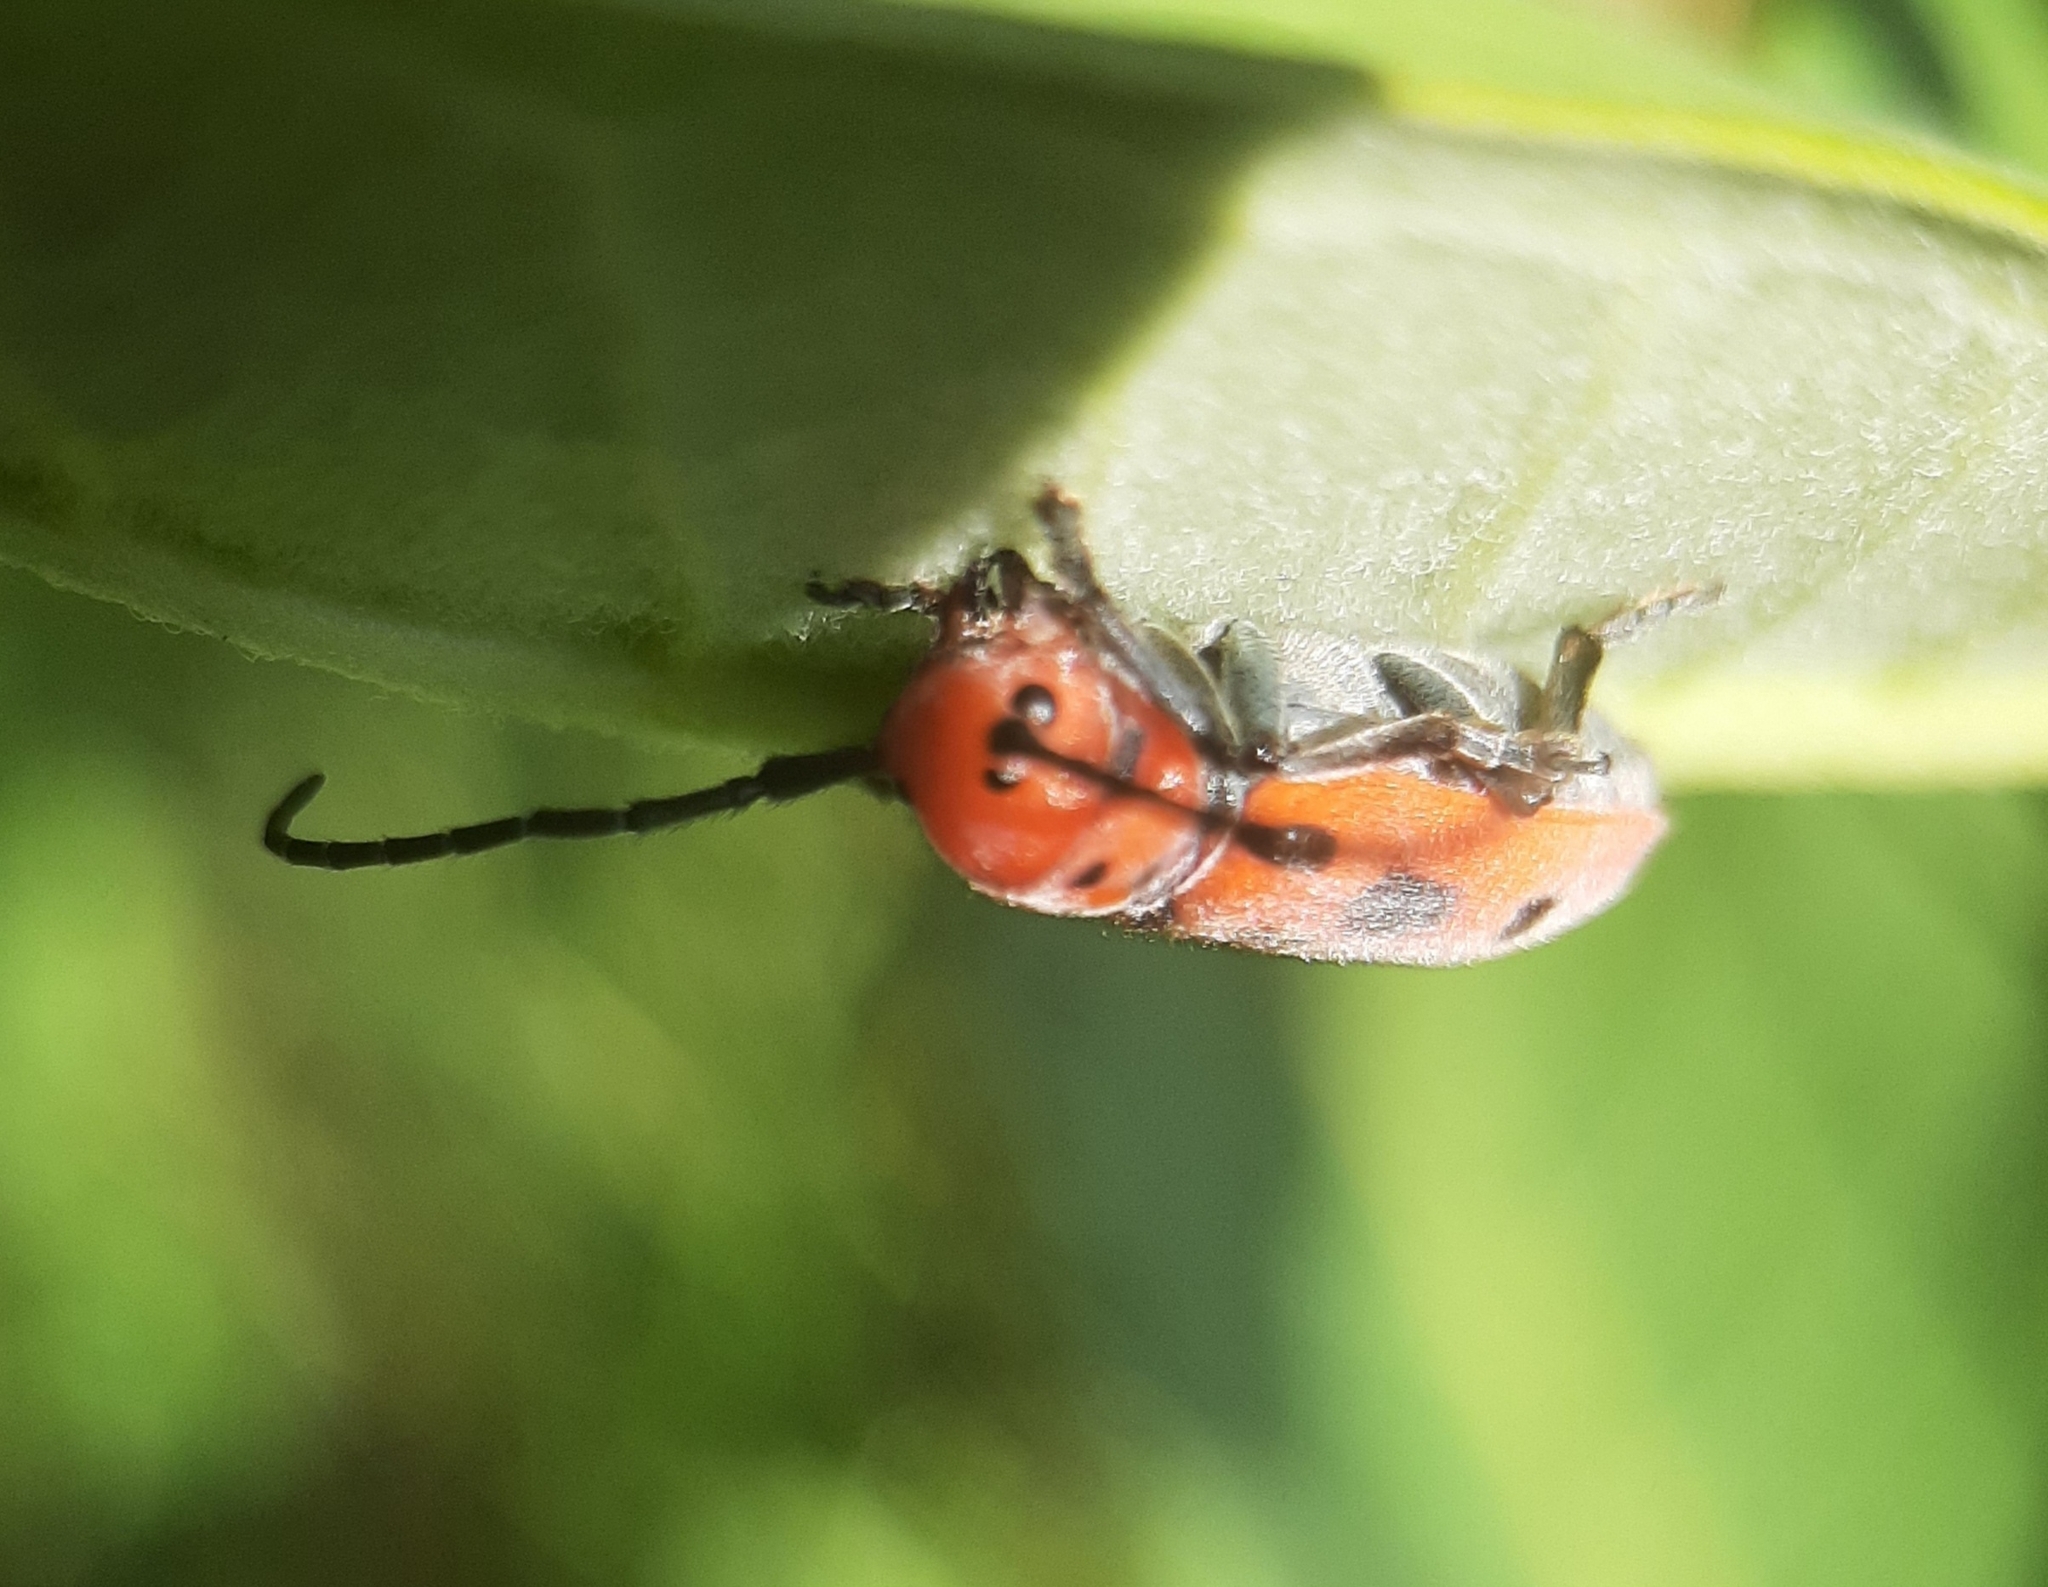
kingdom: Animalia
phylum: Arthropoda
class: Insecta
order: Coleoptera
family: Cerambycidae
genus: Tetraopes
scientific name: Tetraopes tetrophthalmus
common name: Red milkweed beetle
